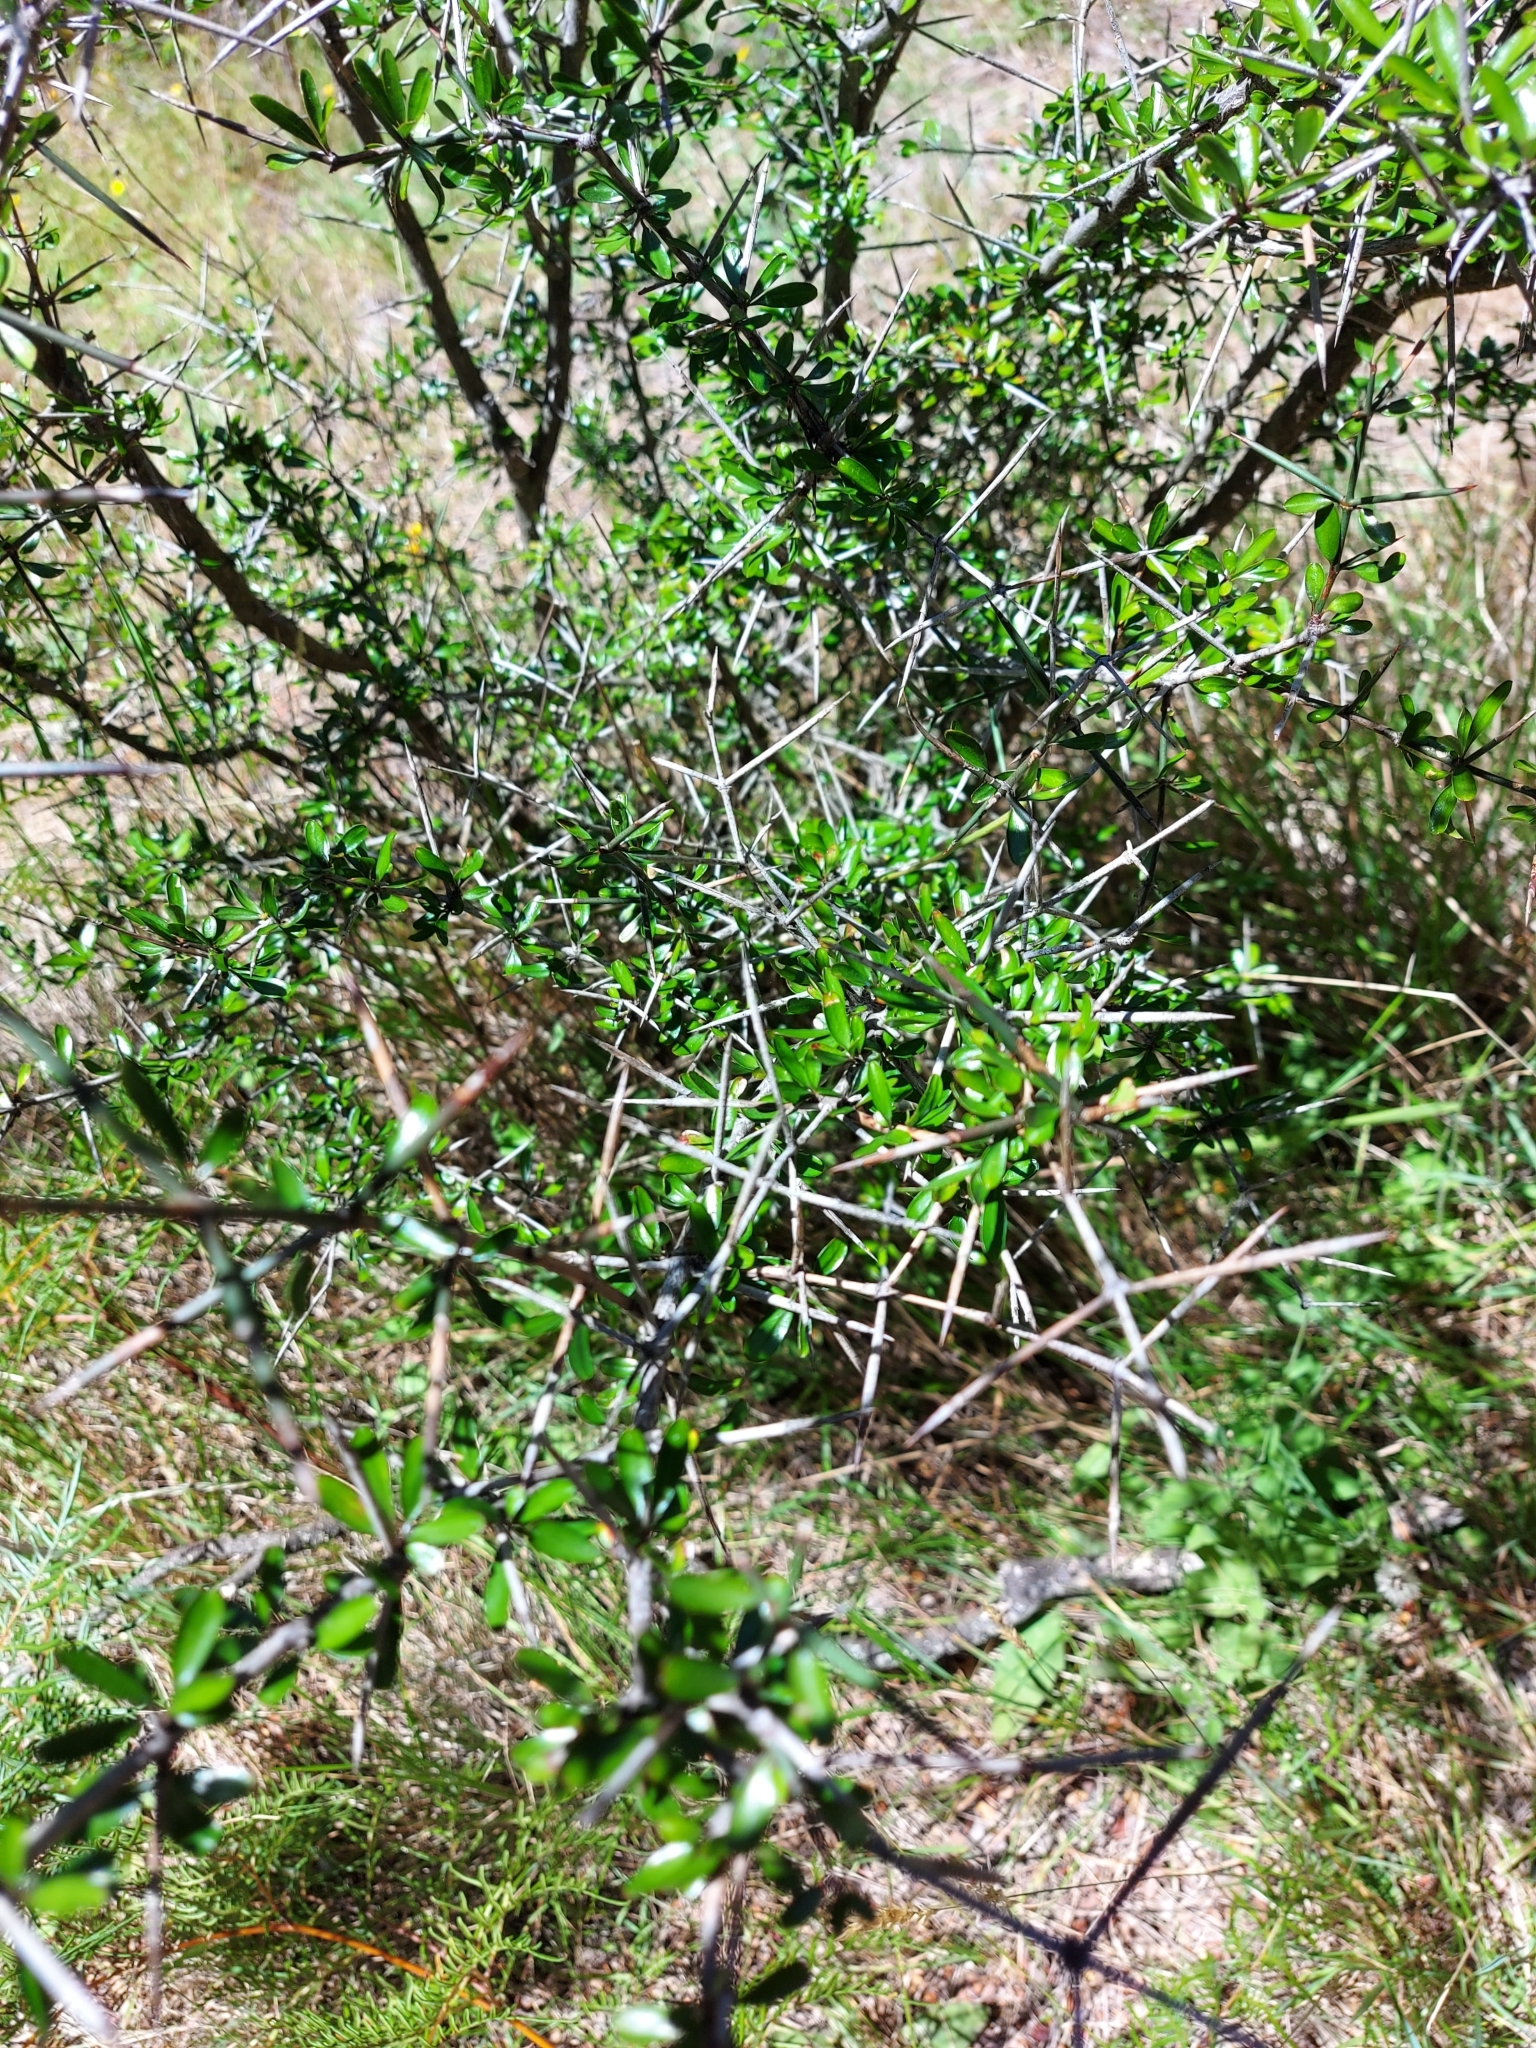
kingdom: Plantae
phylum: Tracheophyta
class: Magnoliopsida
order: Rosales
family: Rhamnaceae
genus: Discaria
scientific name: Discaria toumatou
